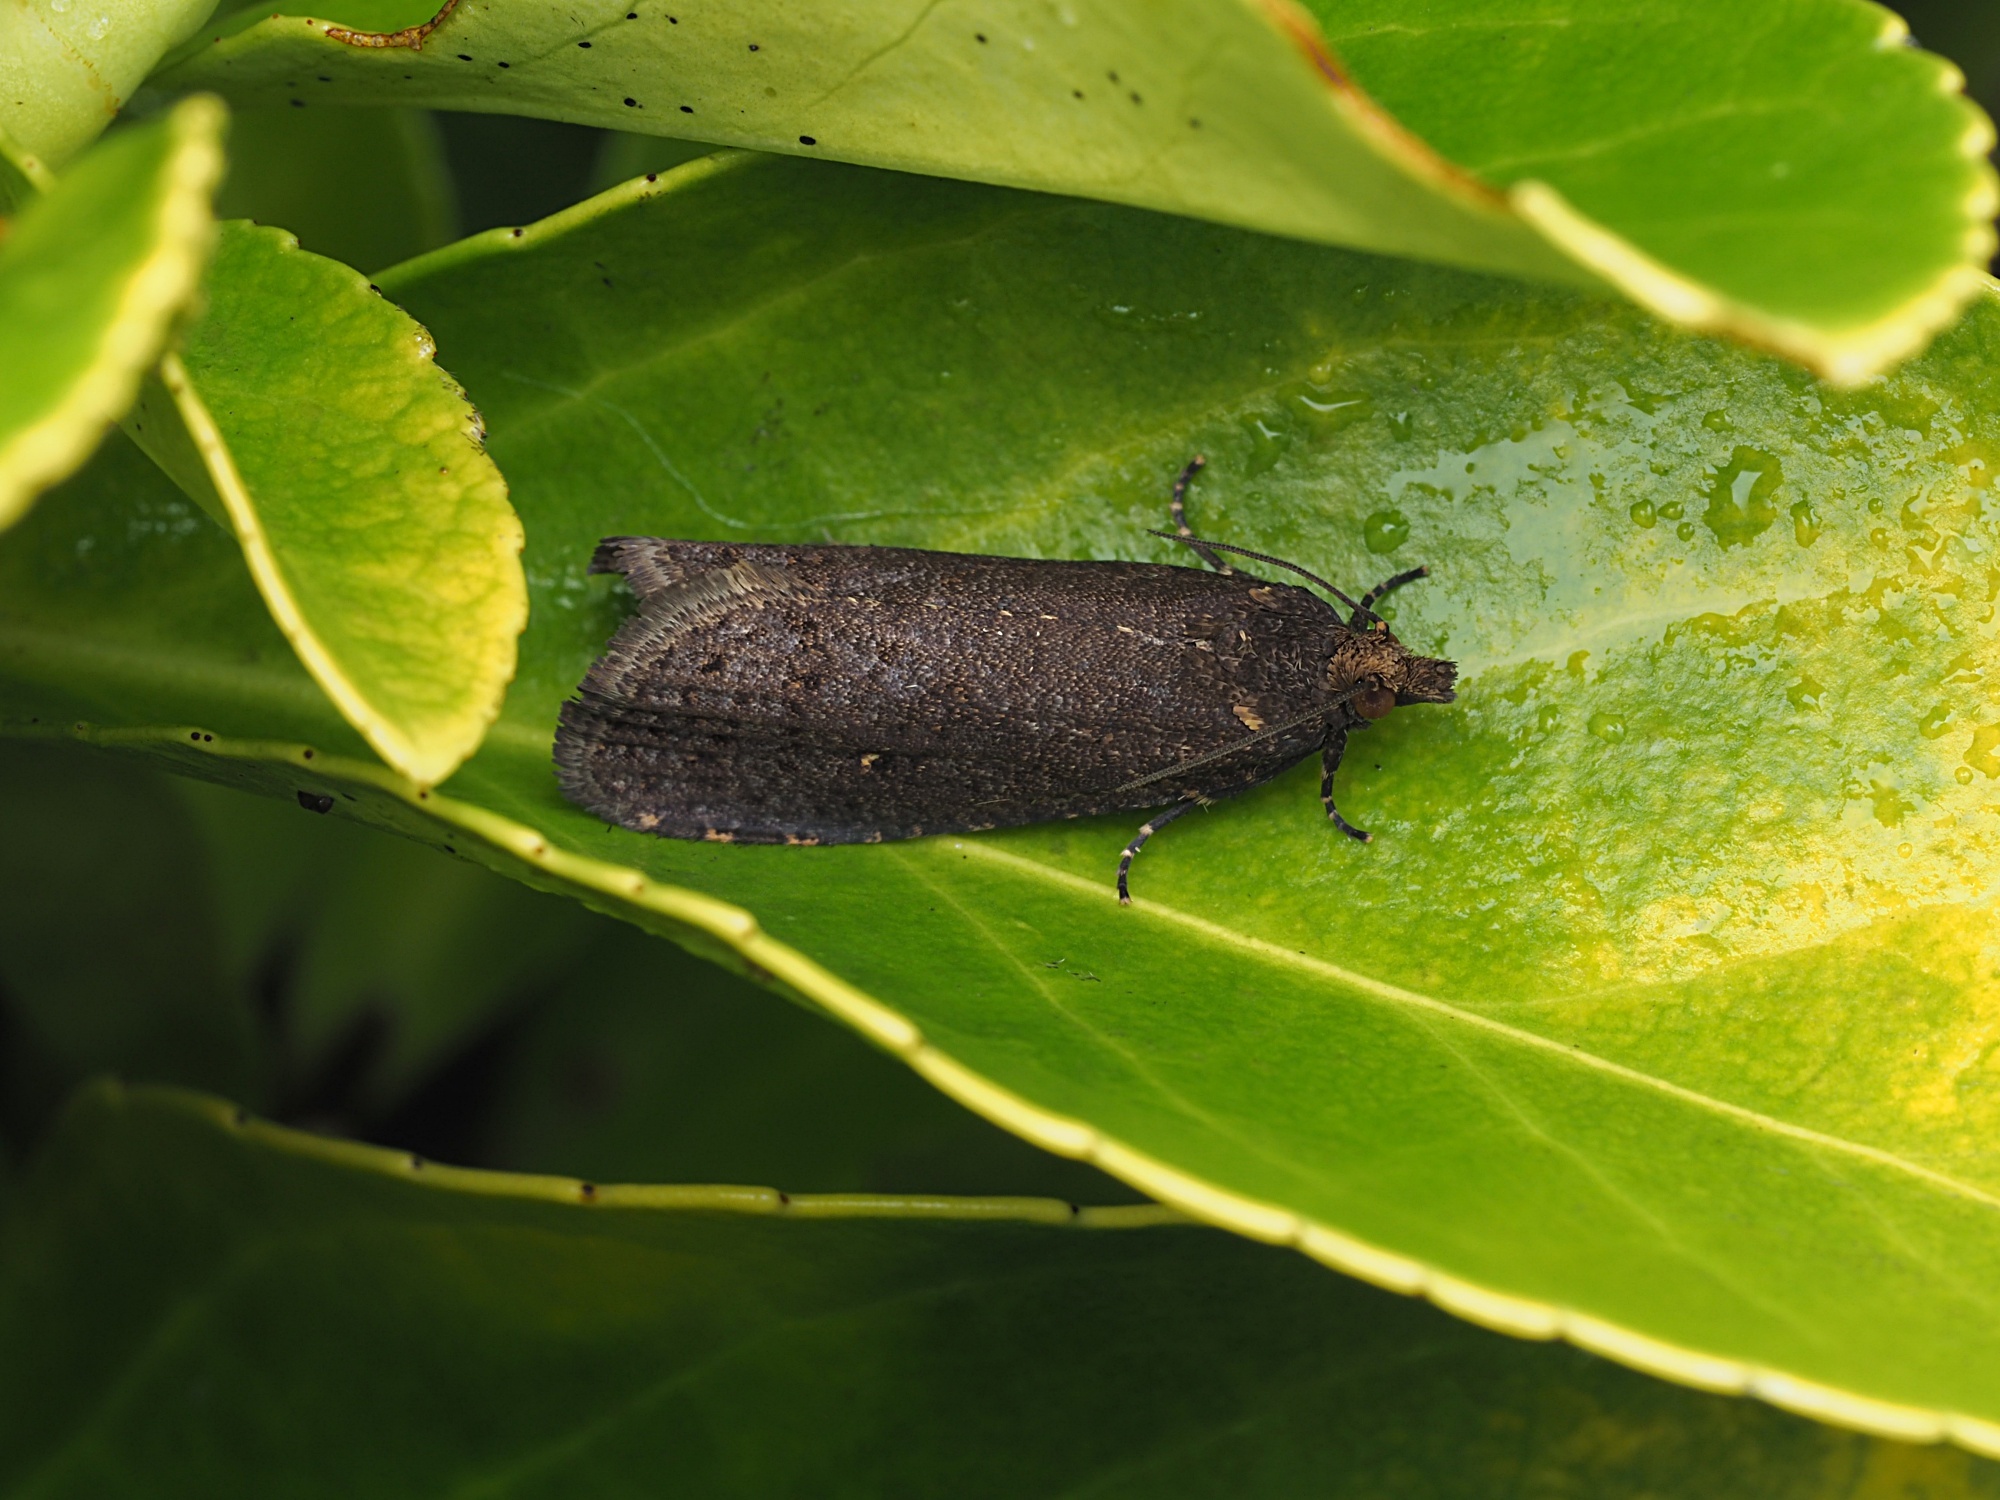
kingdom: Animalia
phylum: Arthropoda
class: Insecta
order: Lepidoptera
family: Tortricidae
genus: Cryptaspasma
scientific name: Cryptaspasma querula
